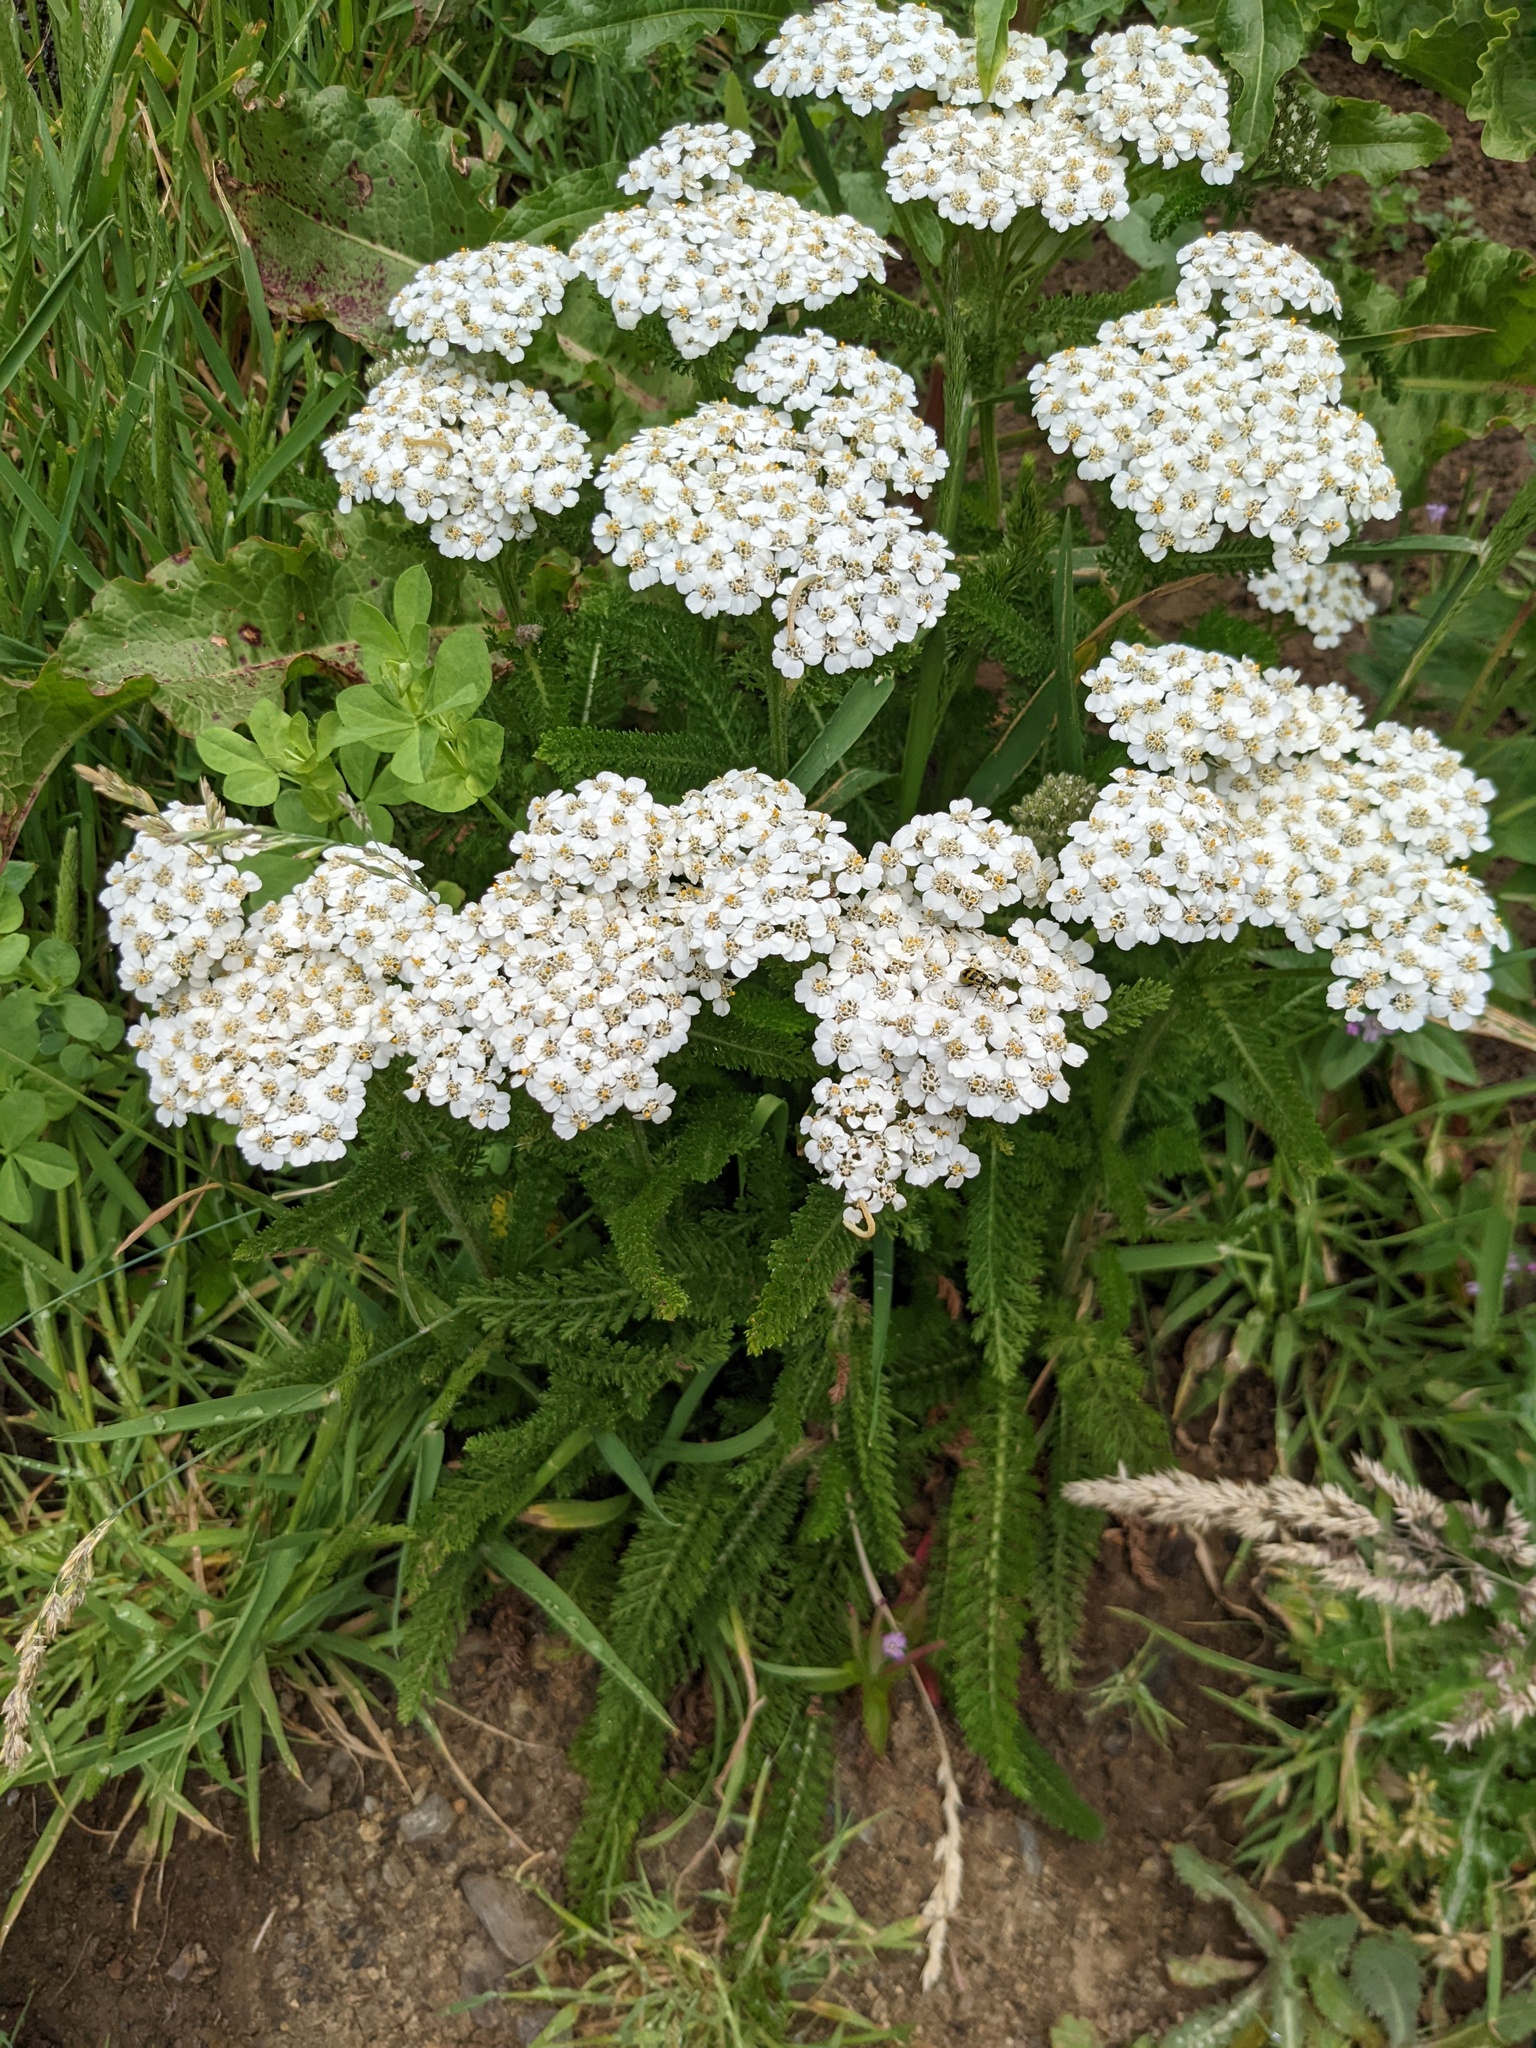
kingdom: Plantae
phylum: Tracheophyta
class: Magnoliopsida
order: Asterales
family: Asteraceae
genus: Achillea
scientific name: Achillea millefolium
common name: Yarrow
